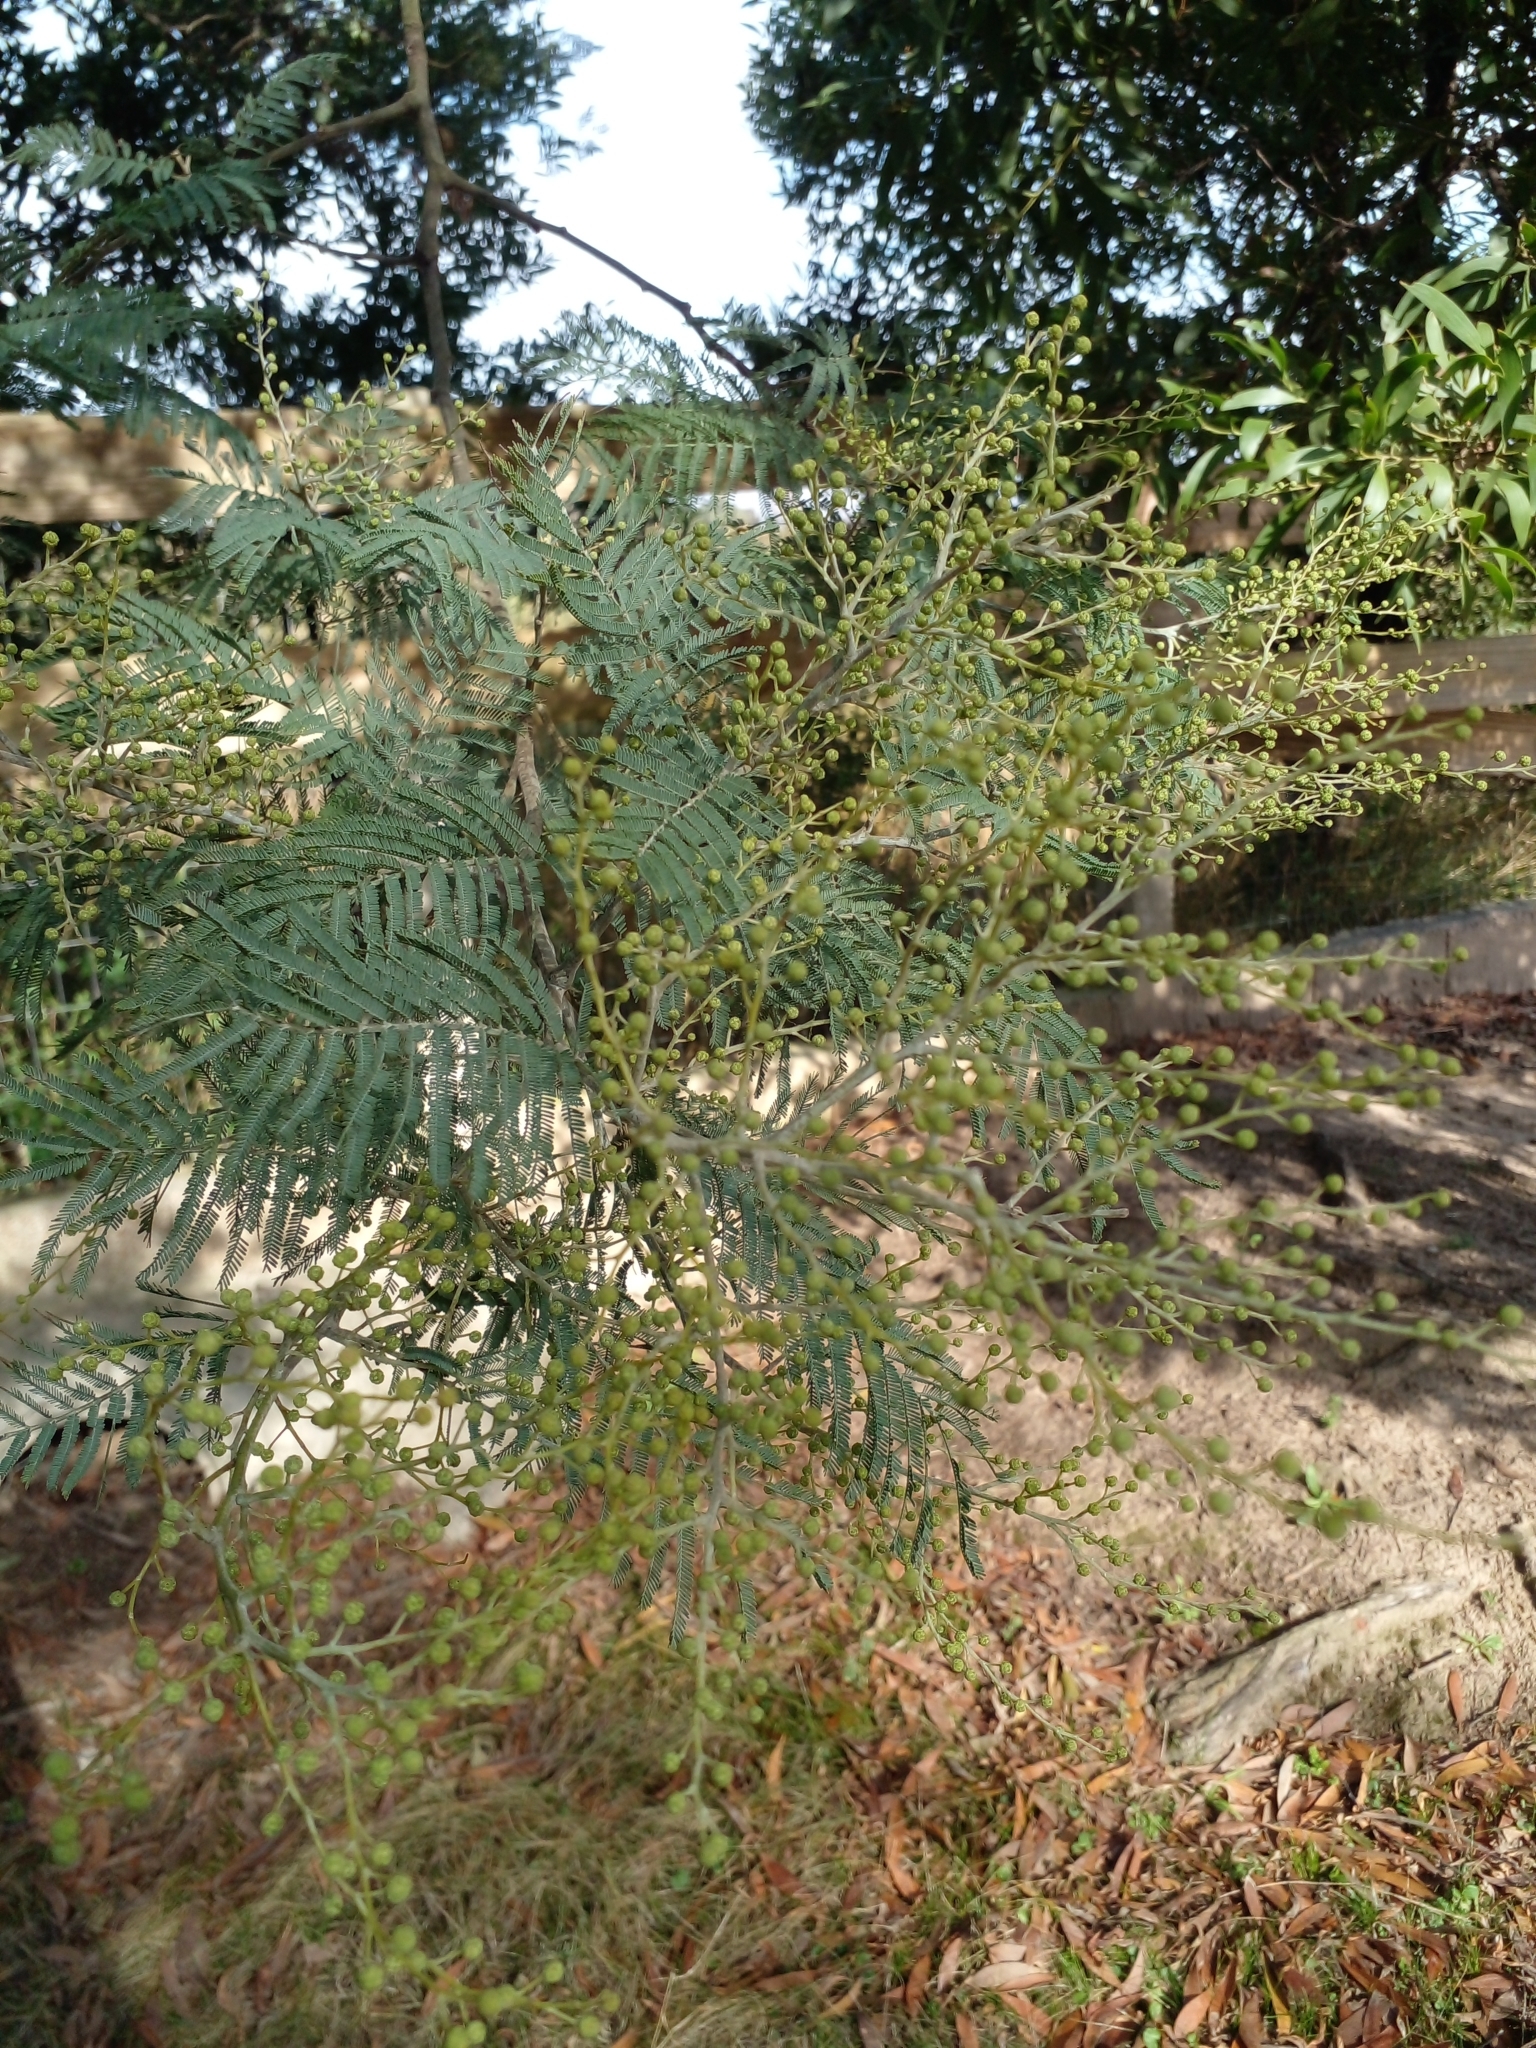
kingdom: Plantae
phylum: Tracheophyta
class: Magnoliopsida
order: Fabales
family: Fabaceae
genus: Acacia
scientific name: Acacia dealbata
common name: Silver wattle
